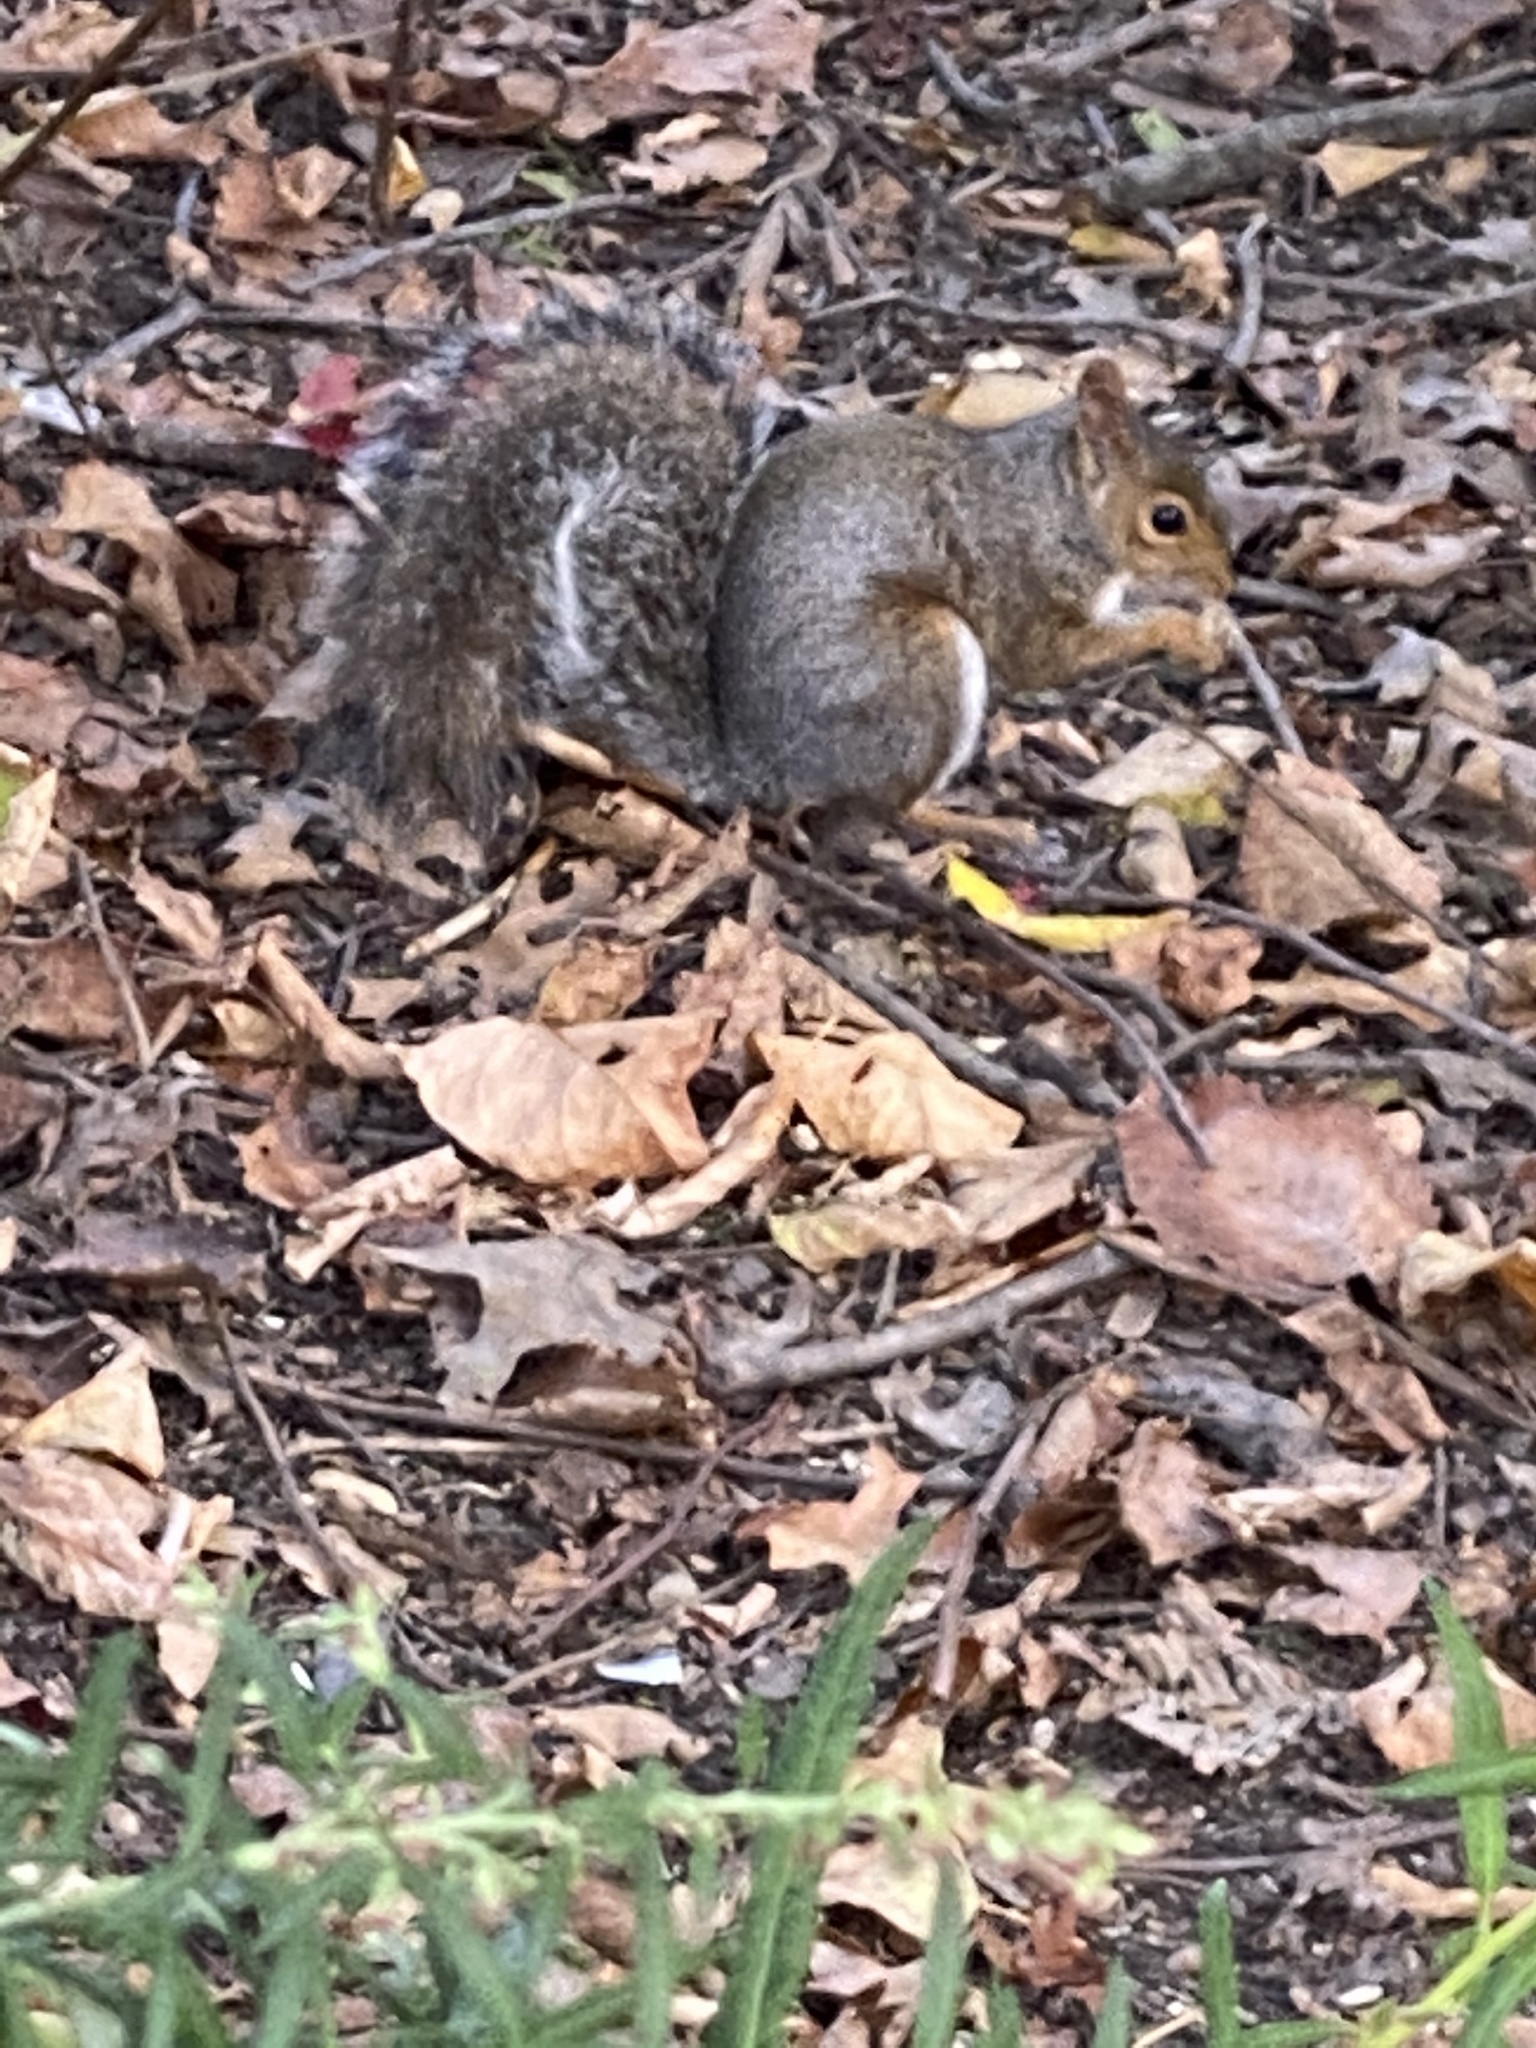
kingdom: Animalia
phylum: Chordata
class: Mammalia
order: Rodentia
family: Sciuridae
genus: Sciurus
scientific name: Sciurus carolinensis
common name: Eastern gray squirrel
